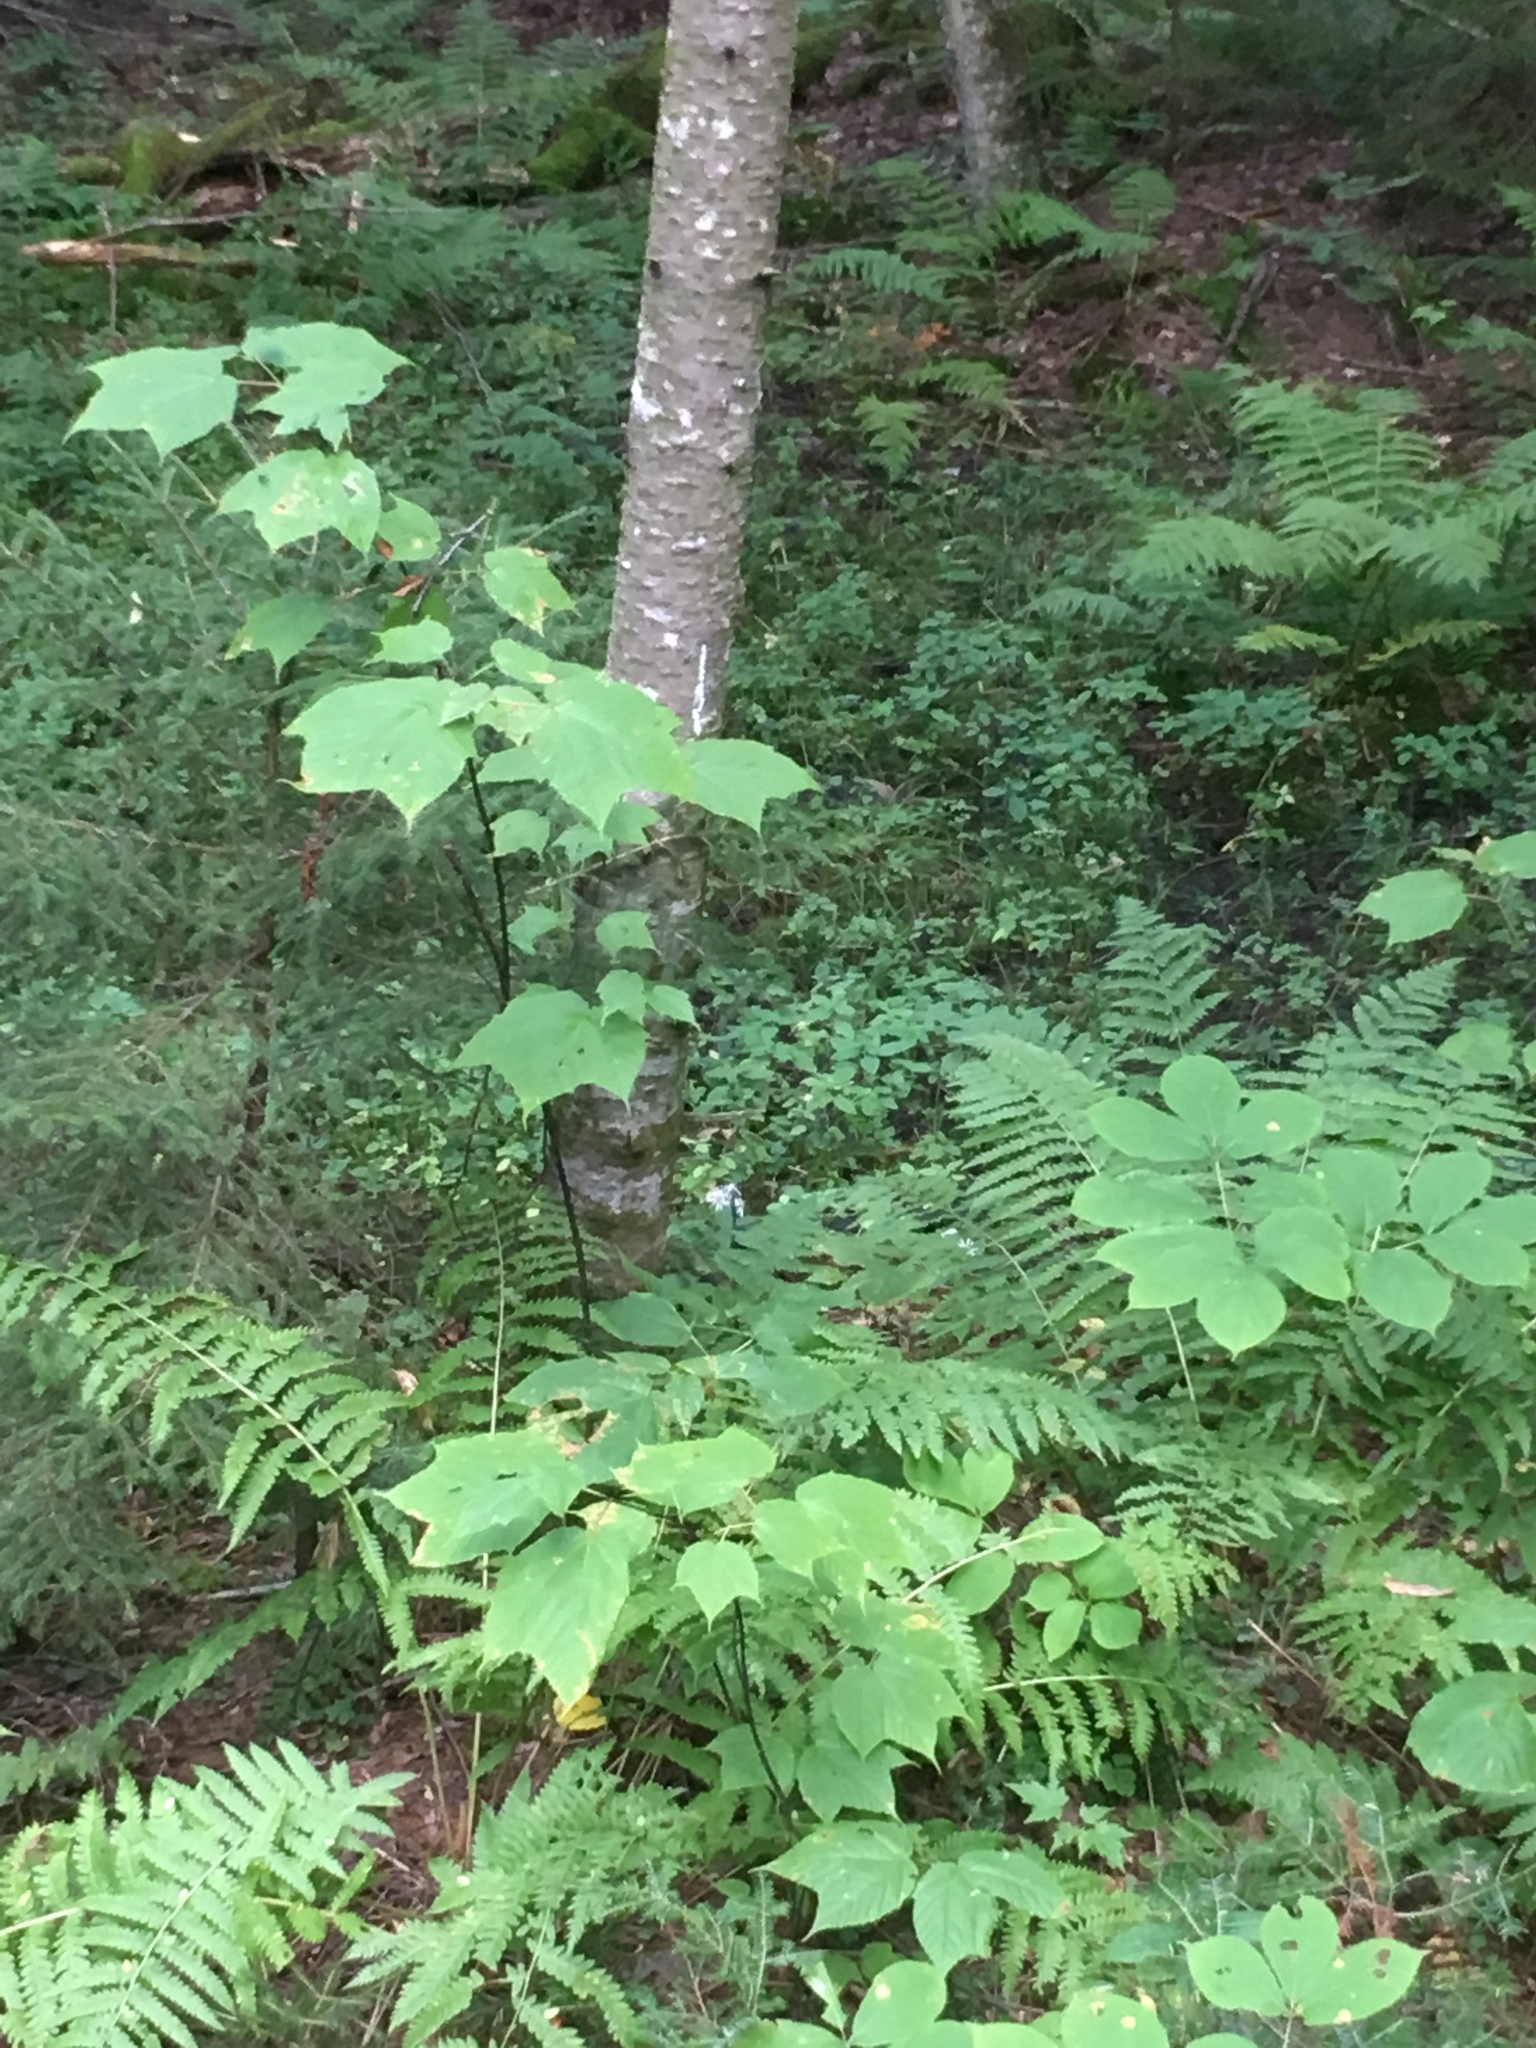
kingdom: Plantae
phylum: Tracheophyta
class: Magnoliopsida
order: Sapindales
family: Sapindaceae
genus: Acer
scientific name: Acer pensylvanicum
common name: Moosewood
